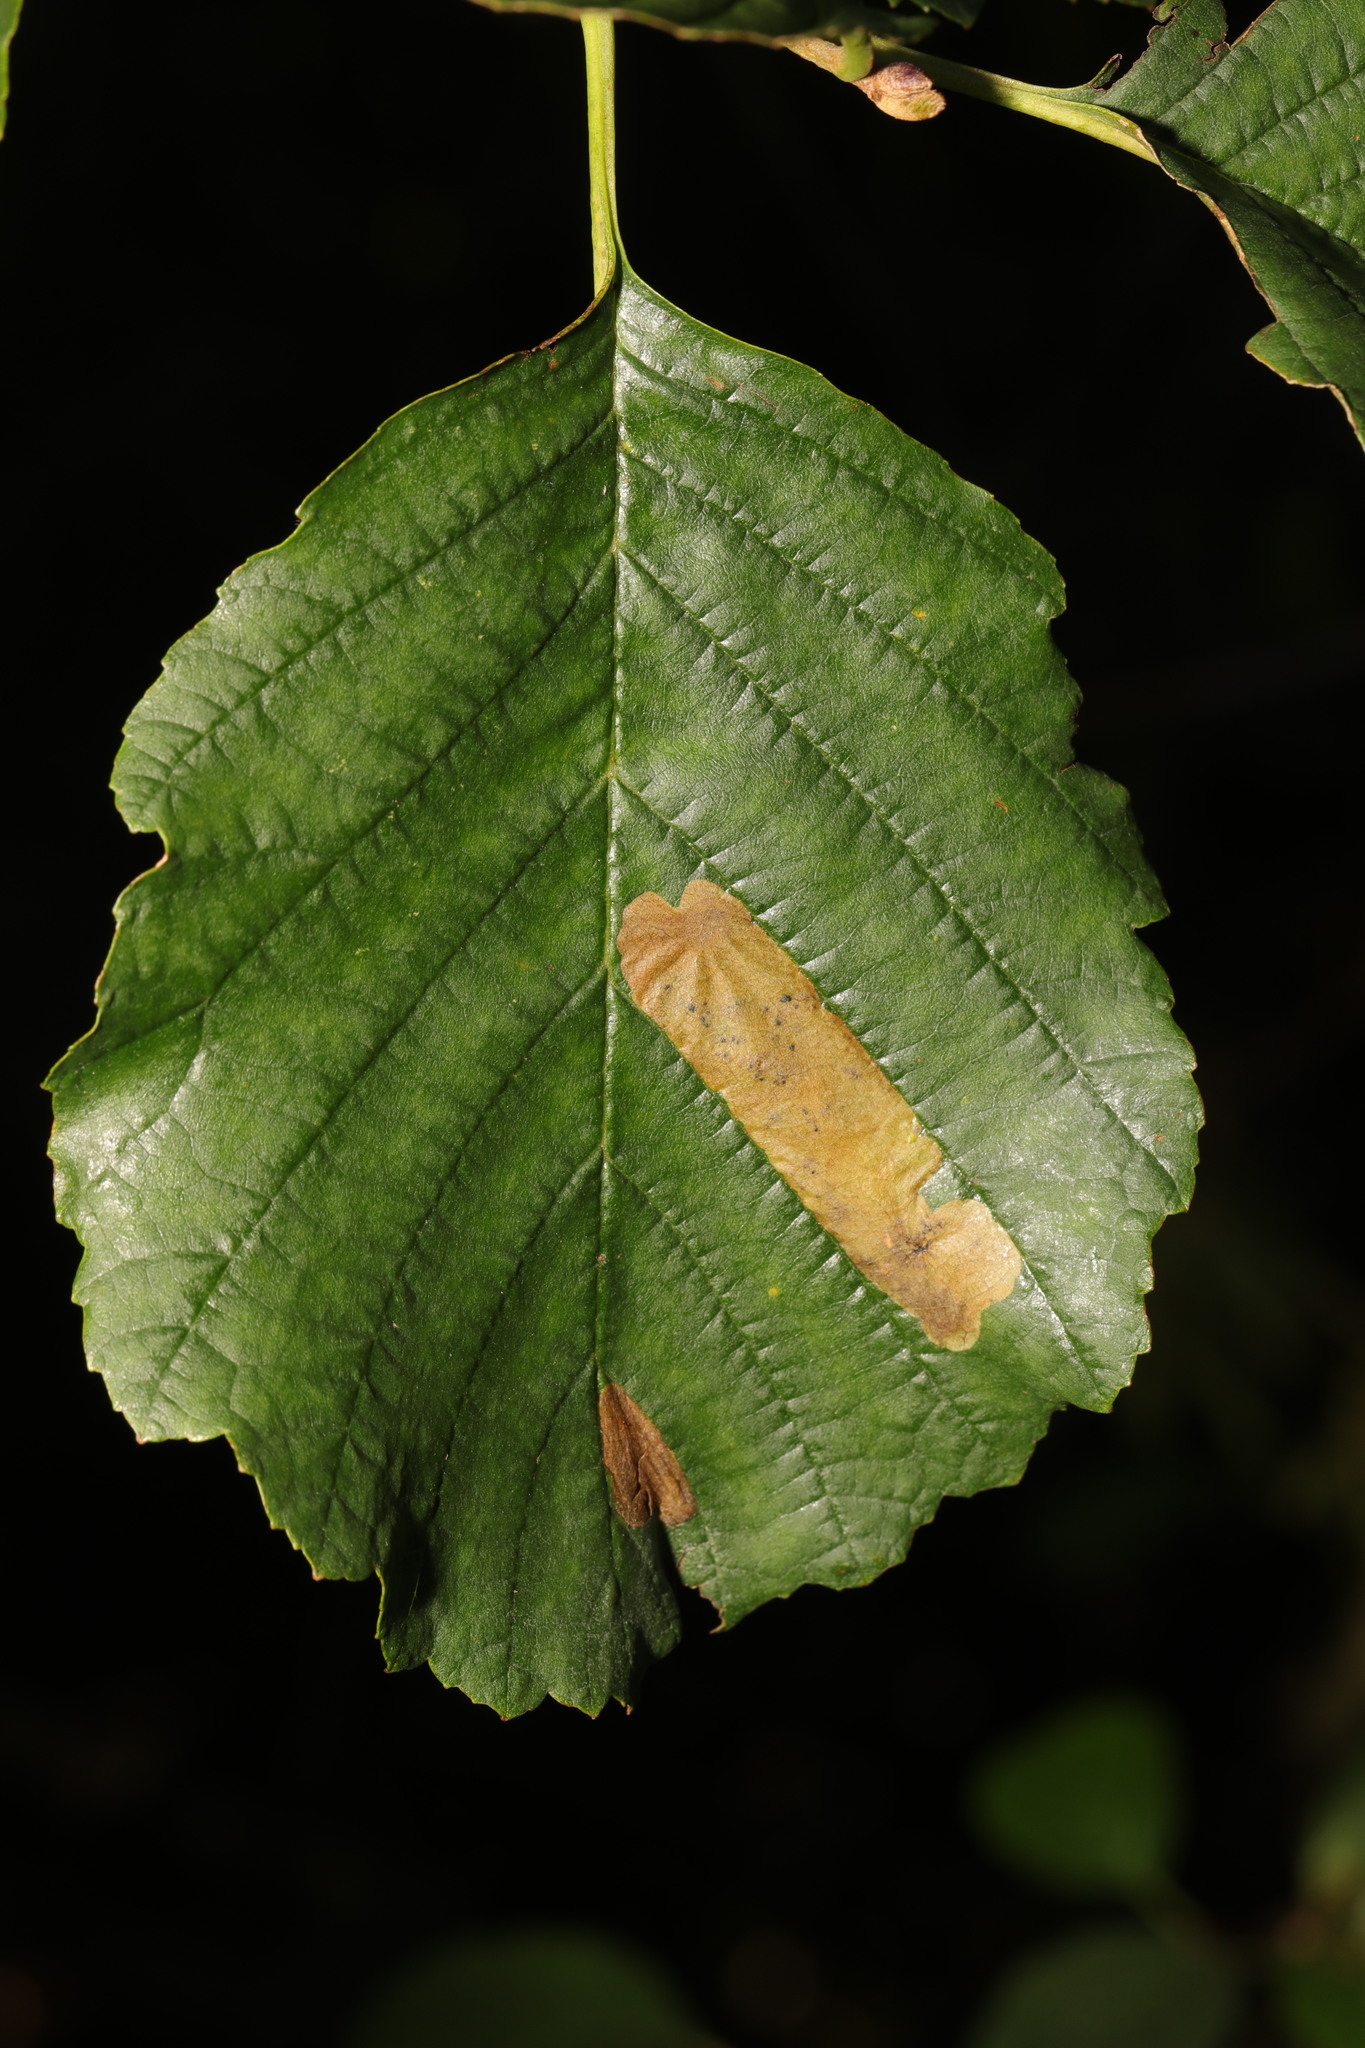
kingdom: Animalia
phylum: Arthropoda
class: Insecta
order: Hymenoptera
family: Tenthredinidae
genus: Fenusa
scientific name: Fenusa dohrnii
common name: European alder leafminer
